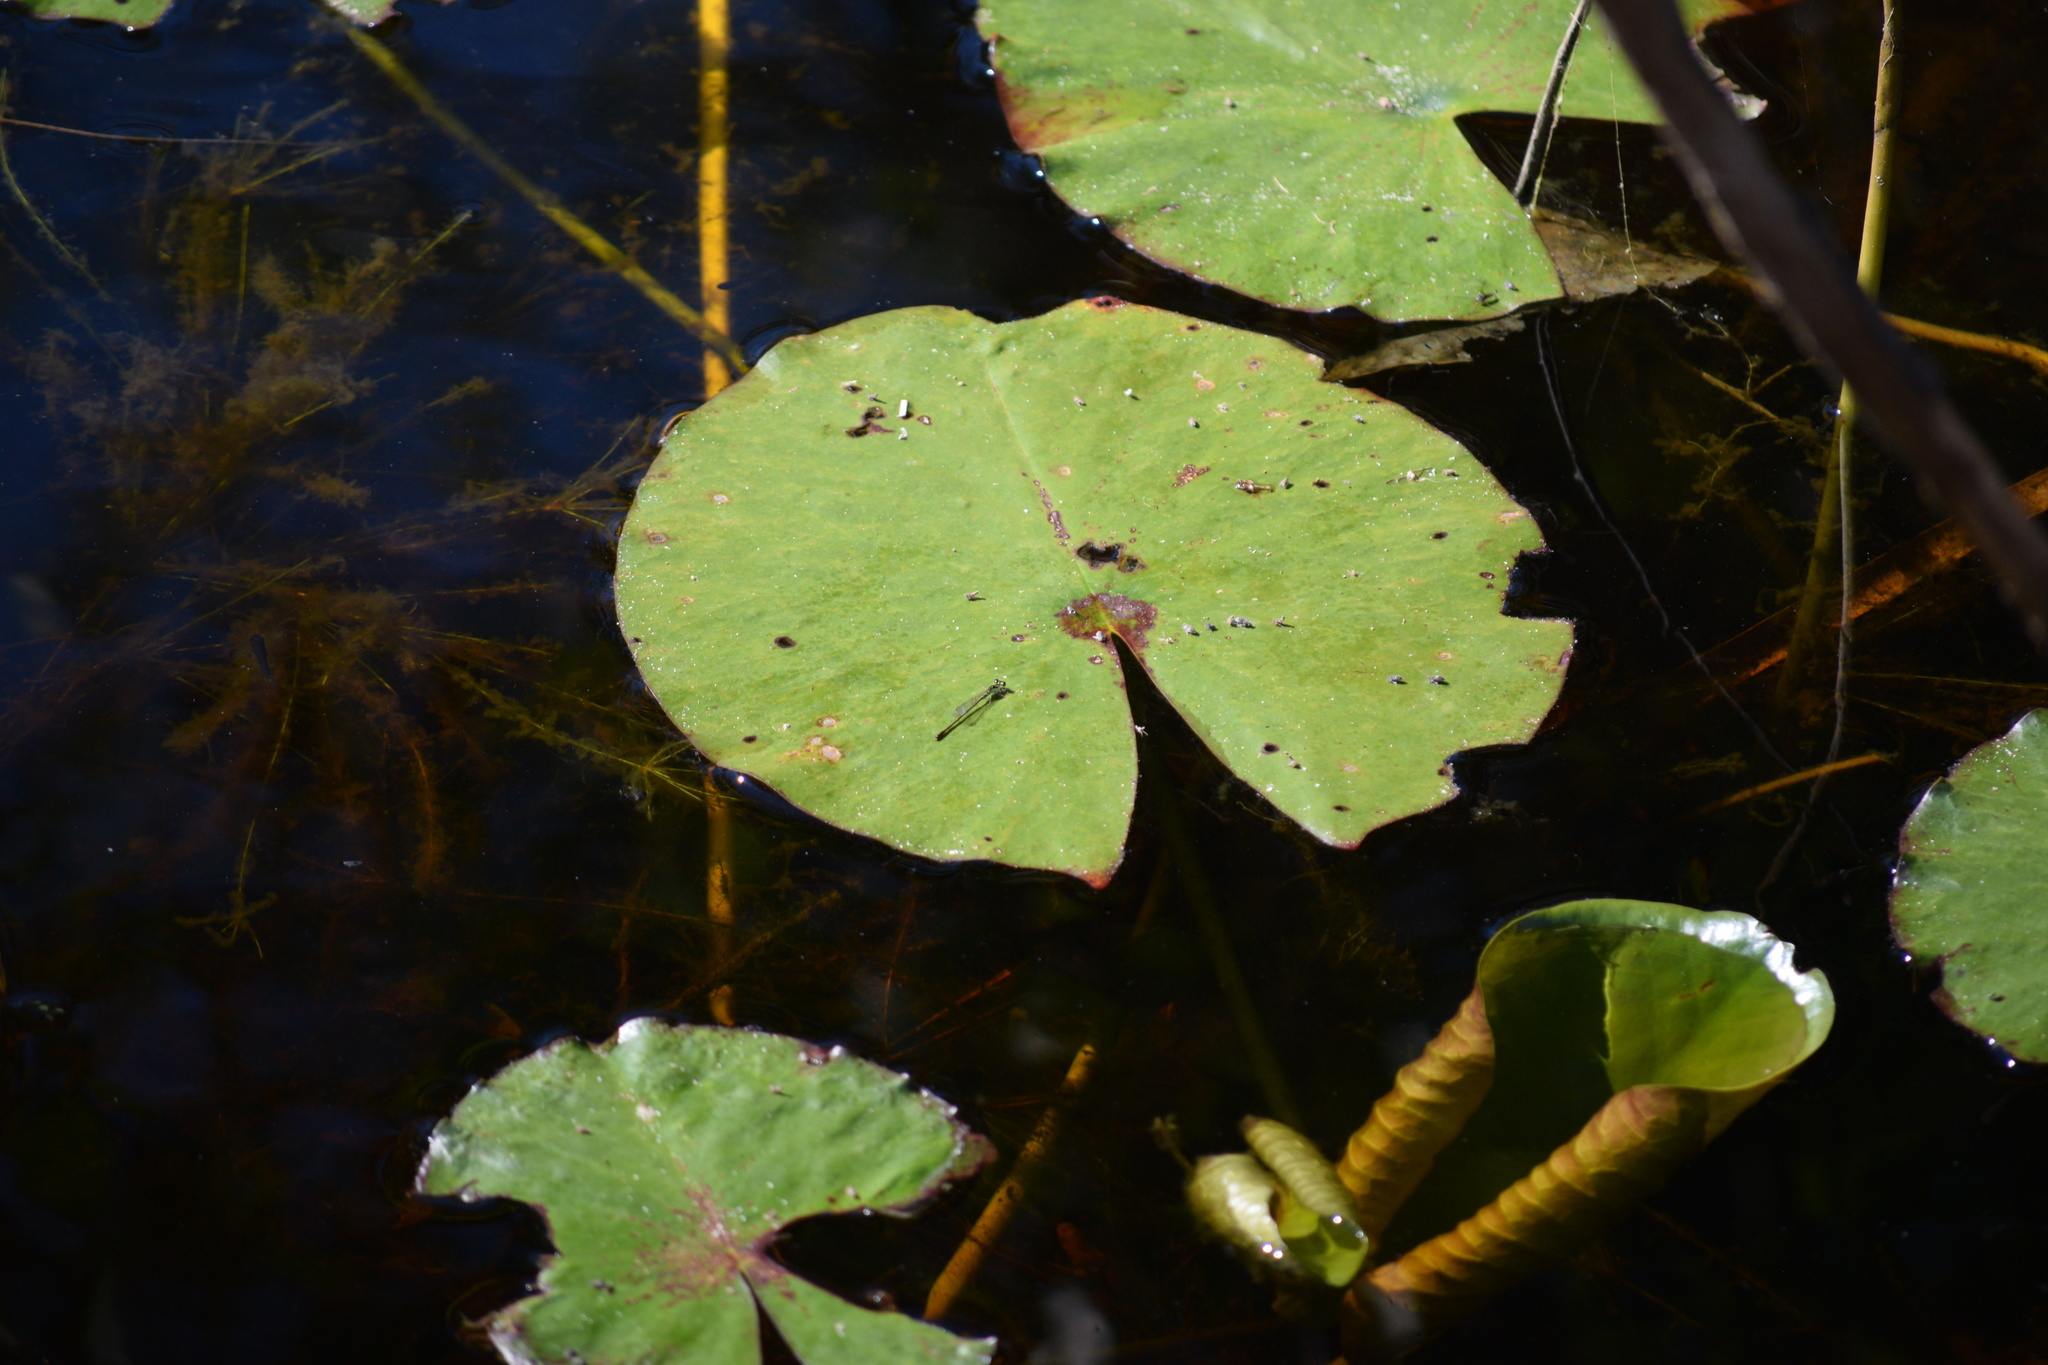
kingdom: Animalia
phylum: Arthropoda
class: Insecta
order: Odonata
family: Coenagrionidae
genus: Ischnura
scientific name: Ischnura posita
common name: Fragile forktail
